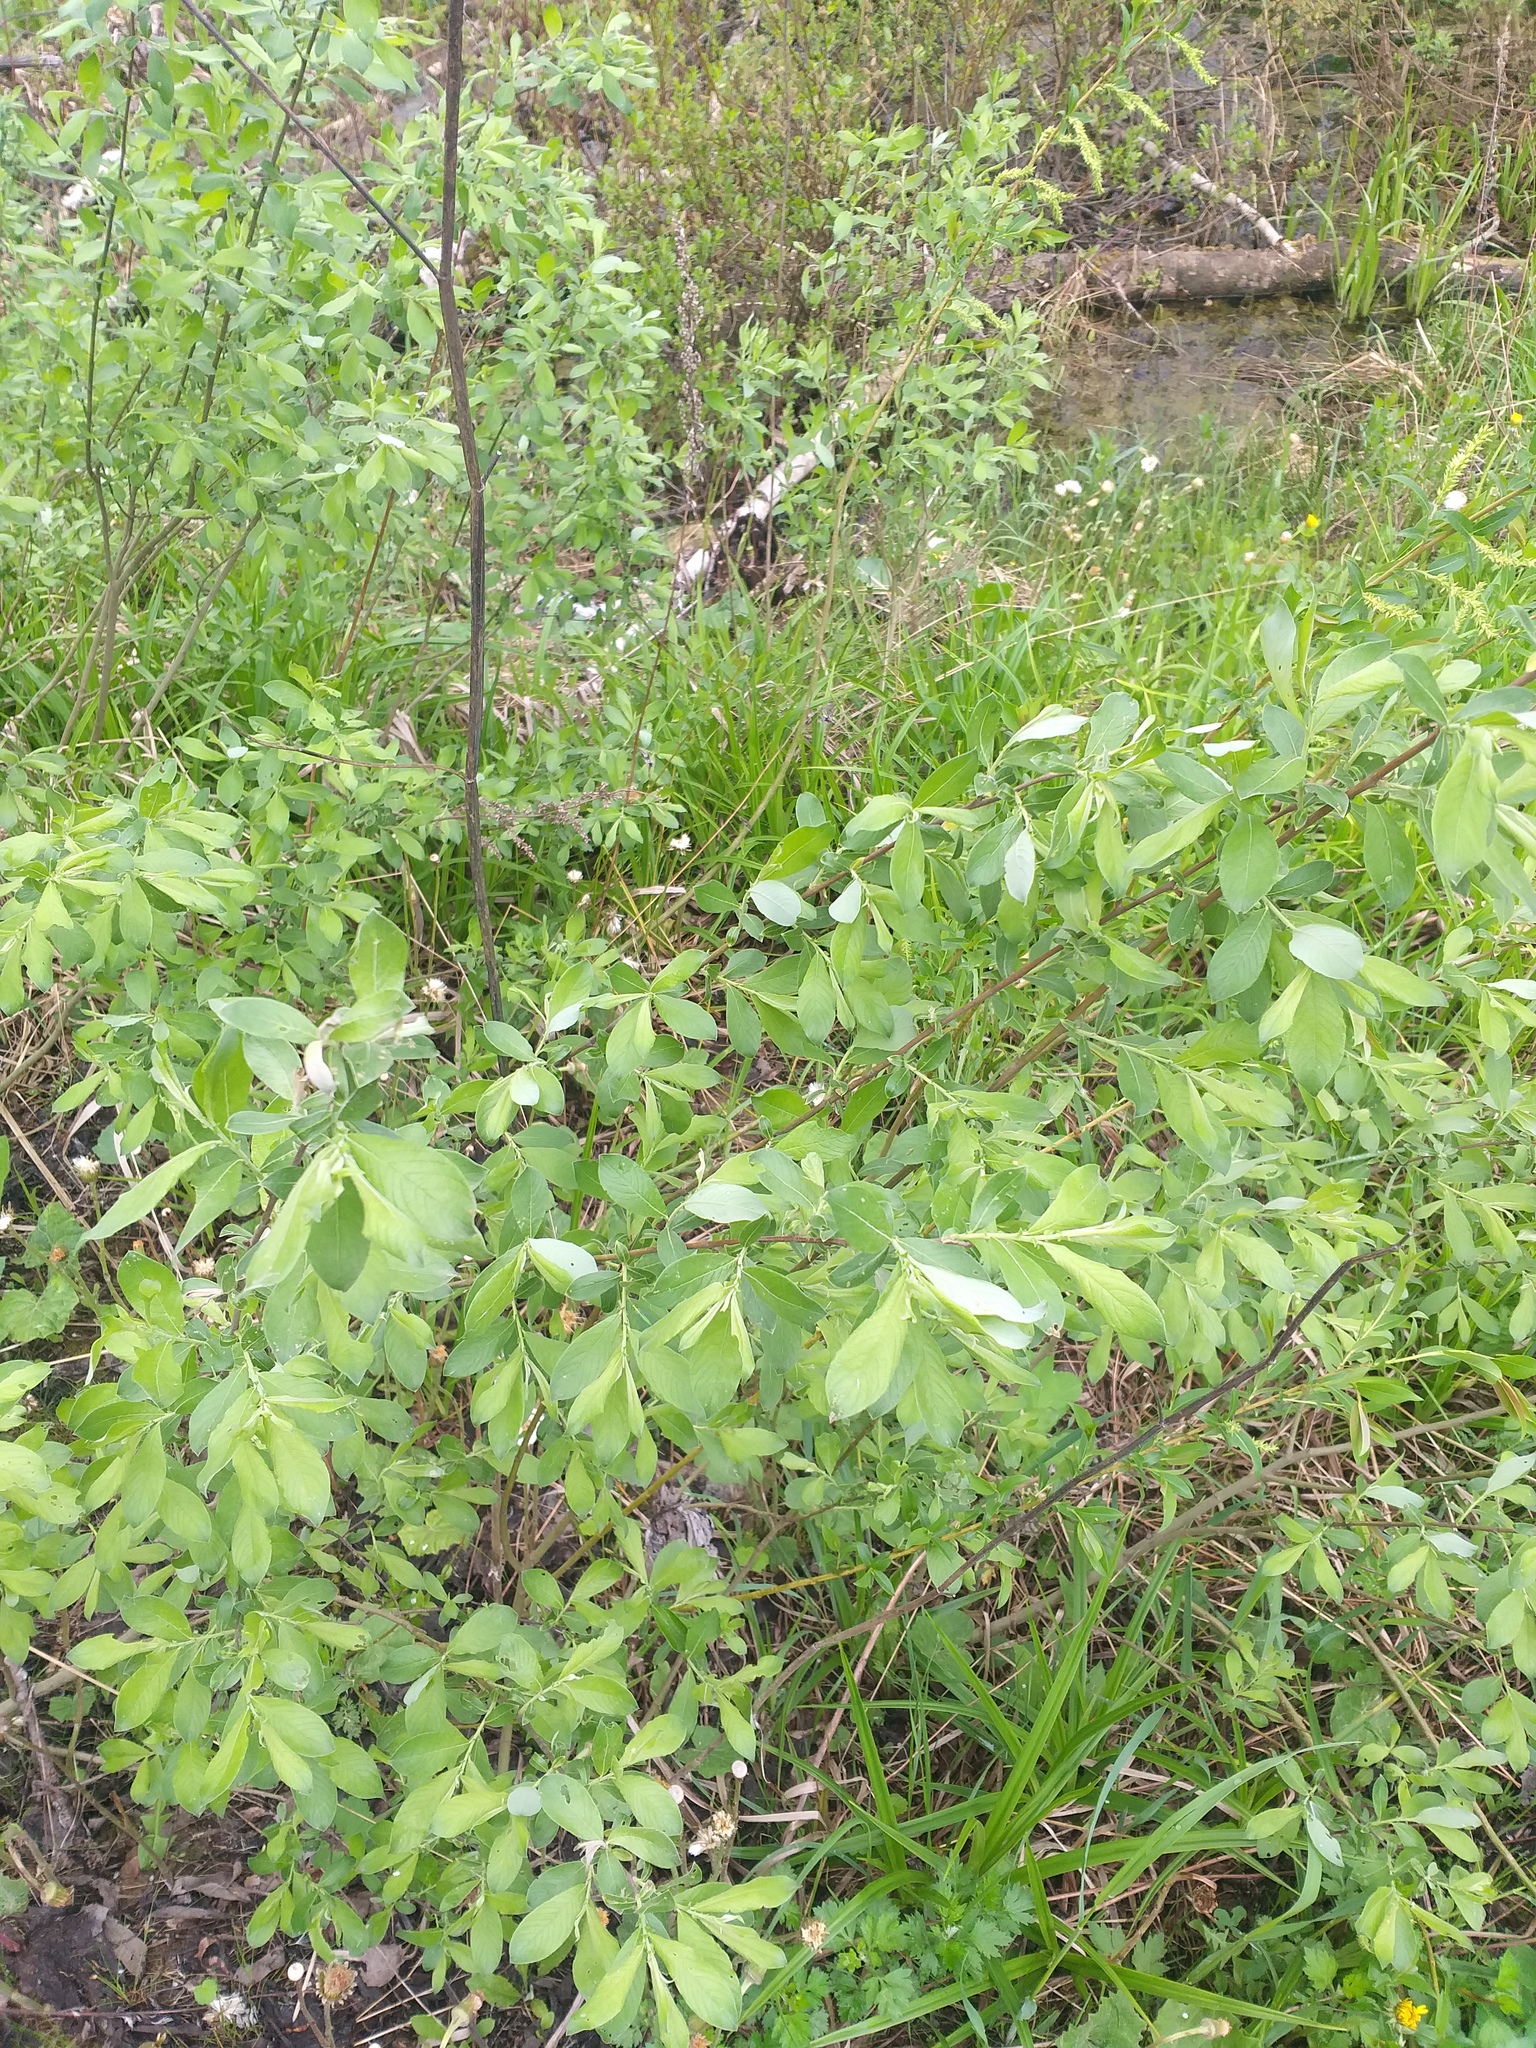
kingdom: Plantae
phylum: Tracheophyta
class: Magnoliopsida
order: Malpighiales
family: Salicaceae
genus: Salix
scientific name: Salix cinerea
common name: Common sallow
